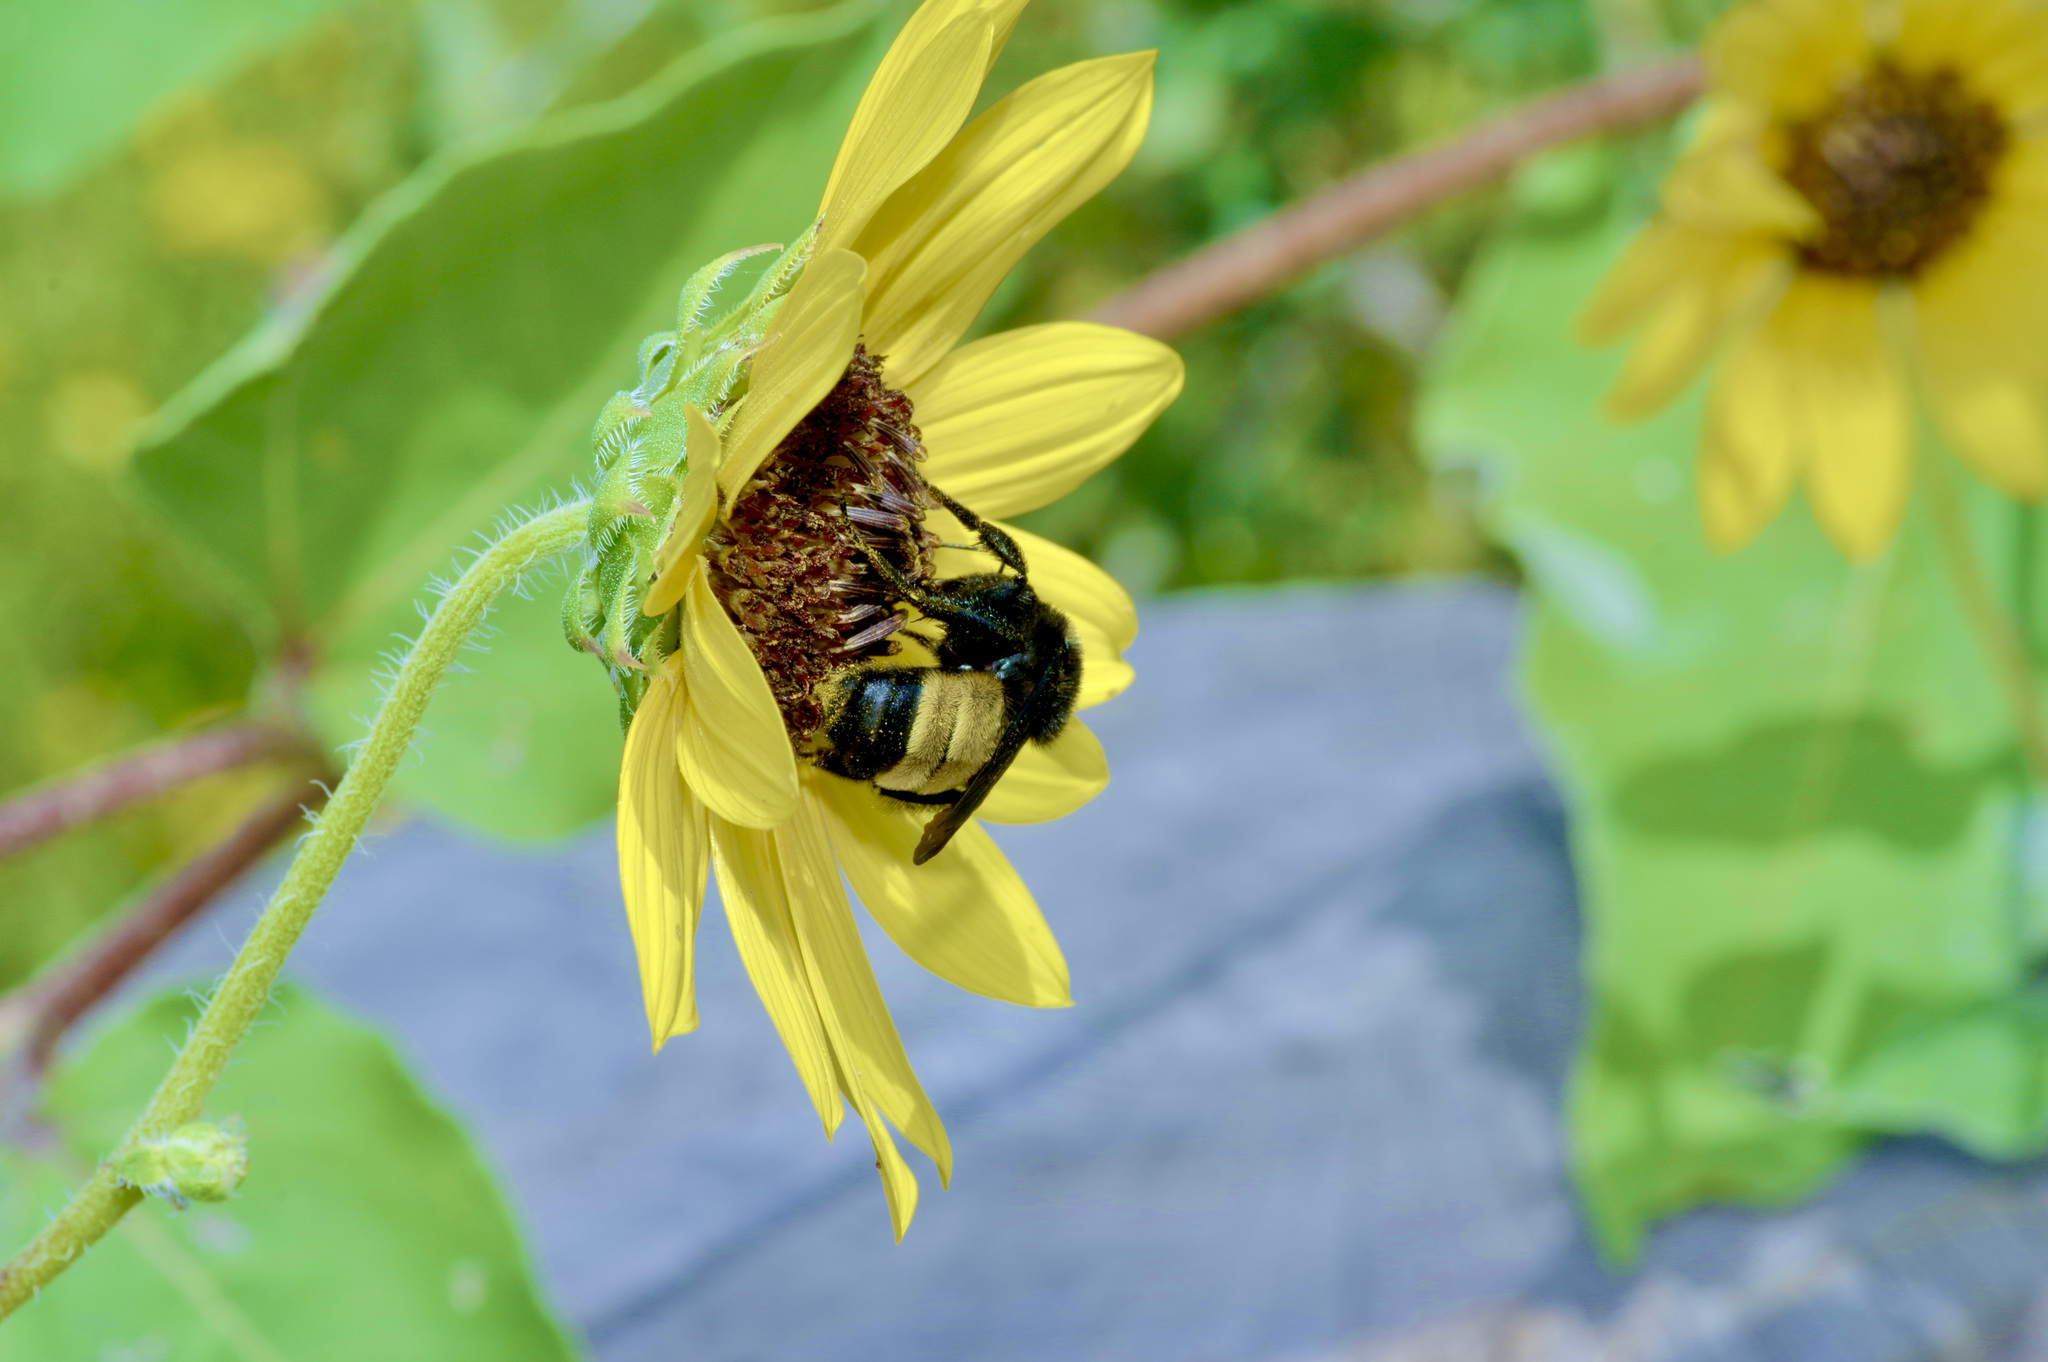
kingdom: Animalia
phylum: Arthropoda
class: Insecta
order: Hymenoptera
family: Apidae
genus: Bombus
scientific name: Bombus pensylvanicus
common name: Bumble bee
